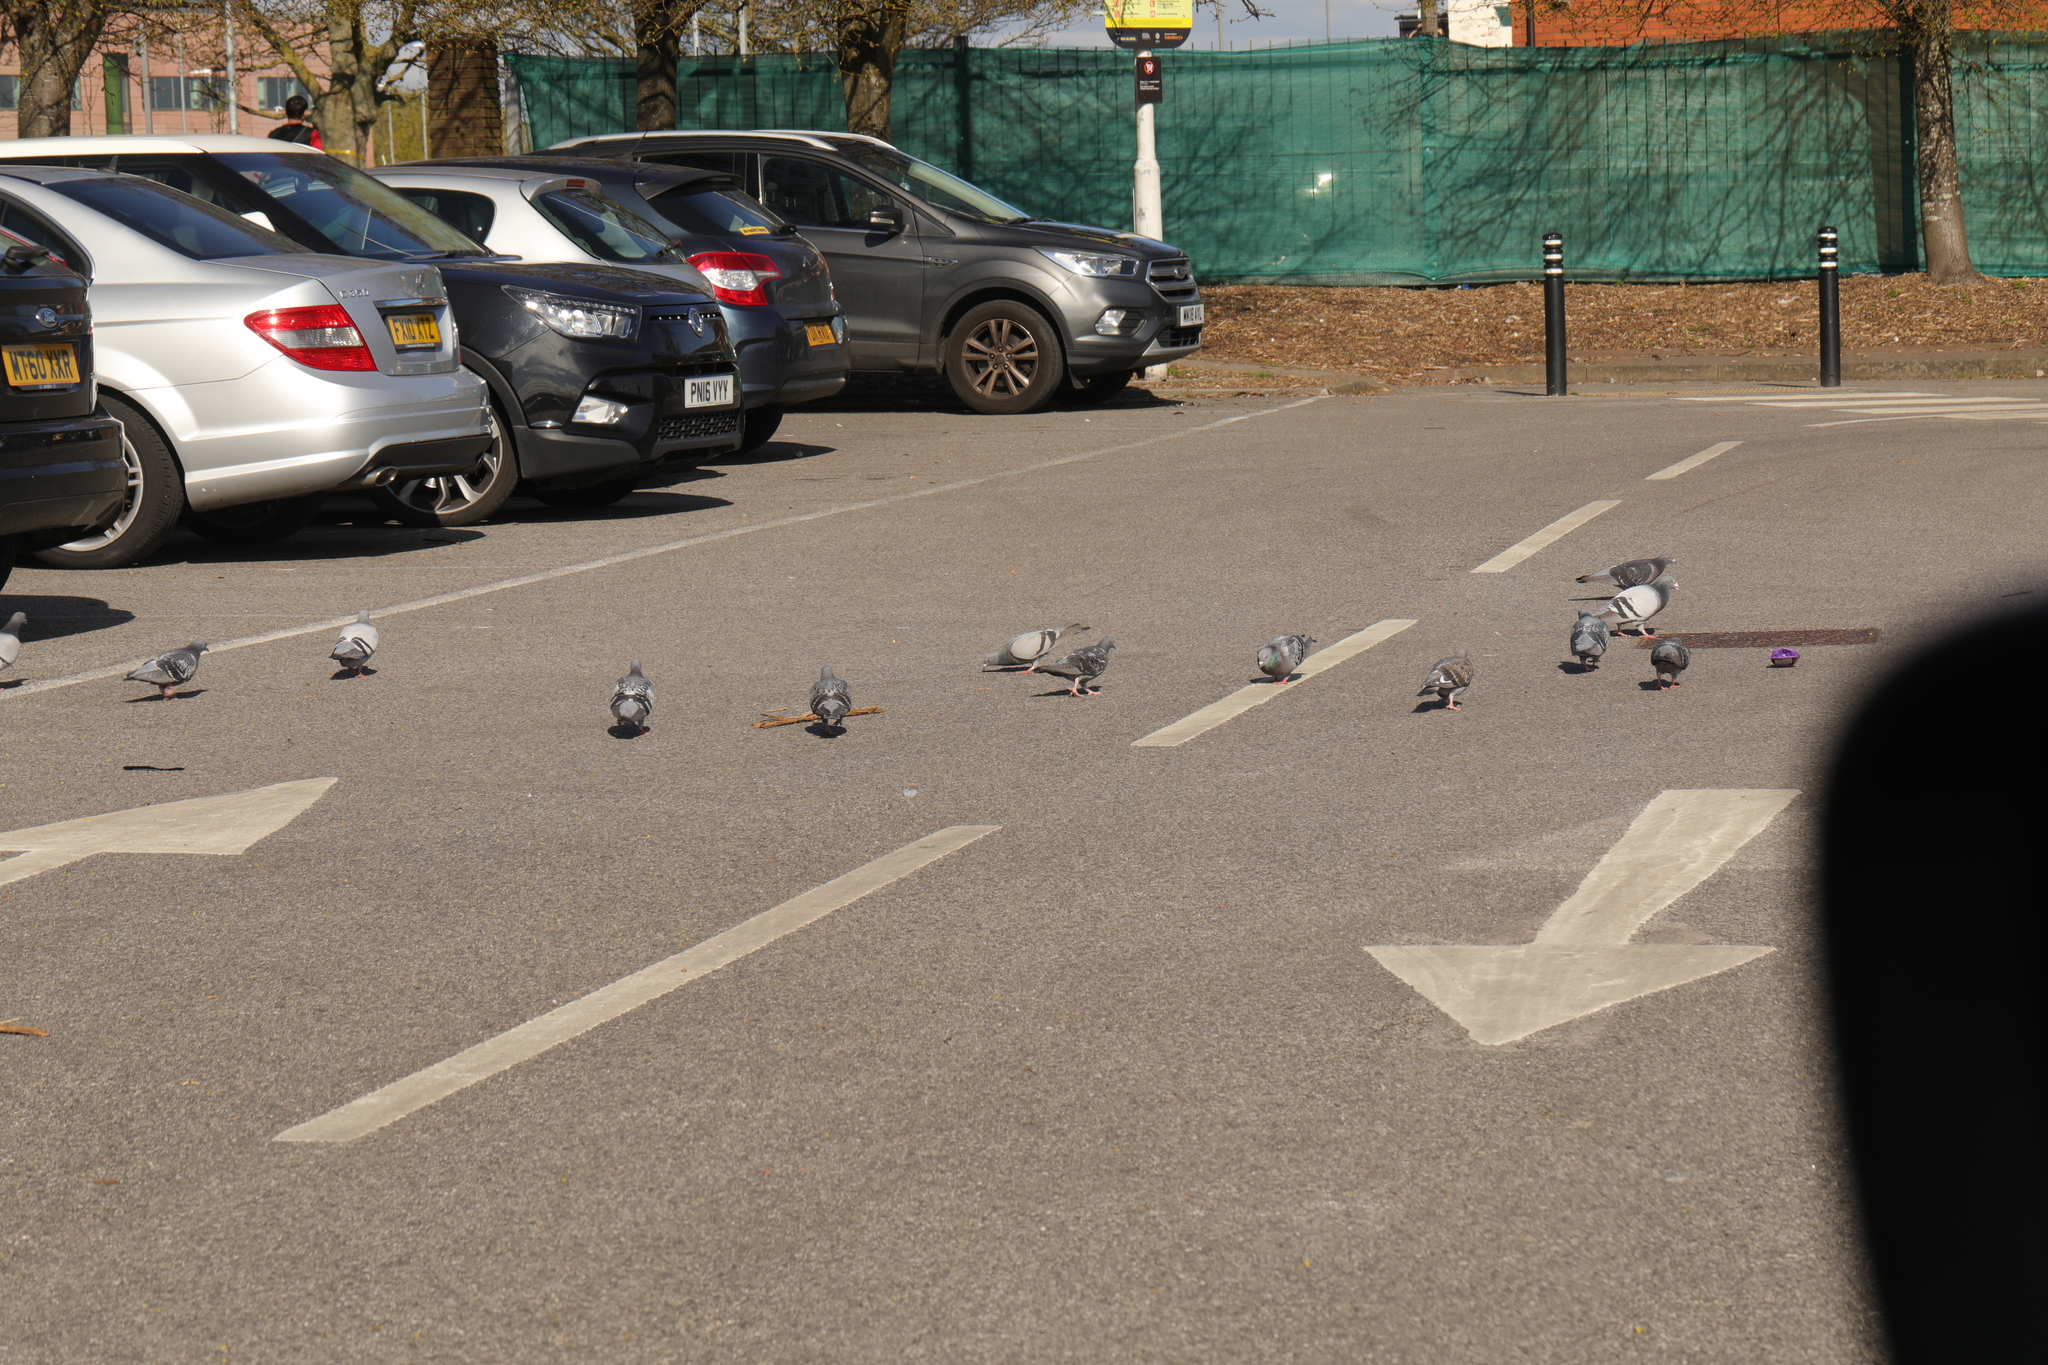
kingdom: Animalia
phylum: Chordata
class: Aves
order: Columbiformes
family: Columbidae
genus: Columba
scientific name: Columba livia
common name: Rock pigeon
